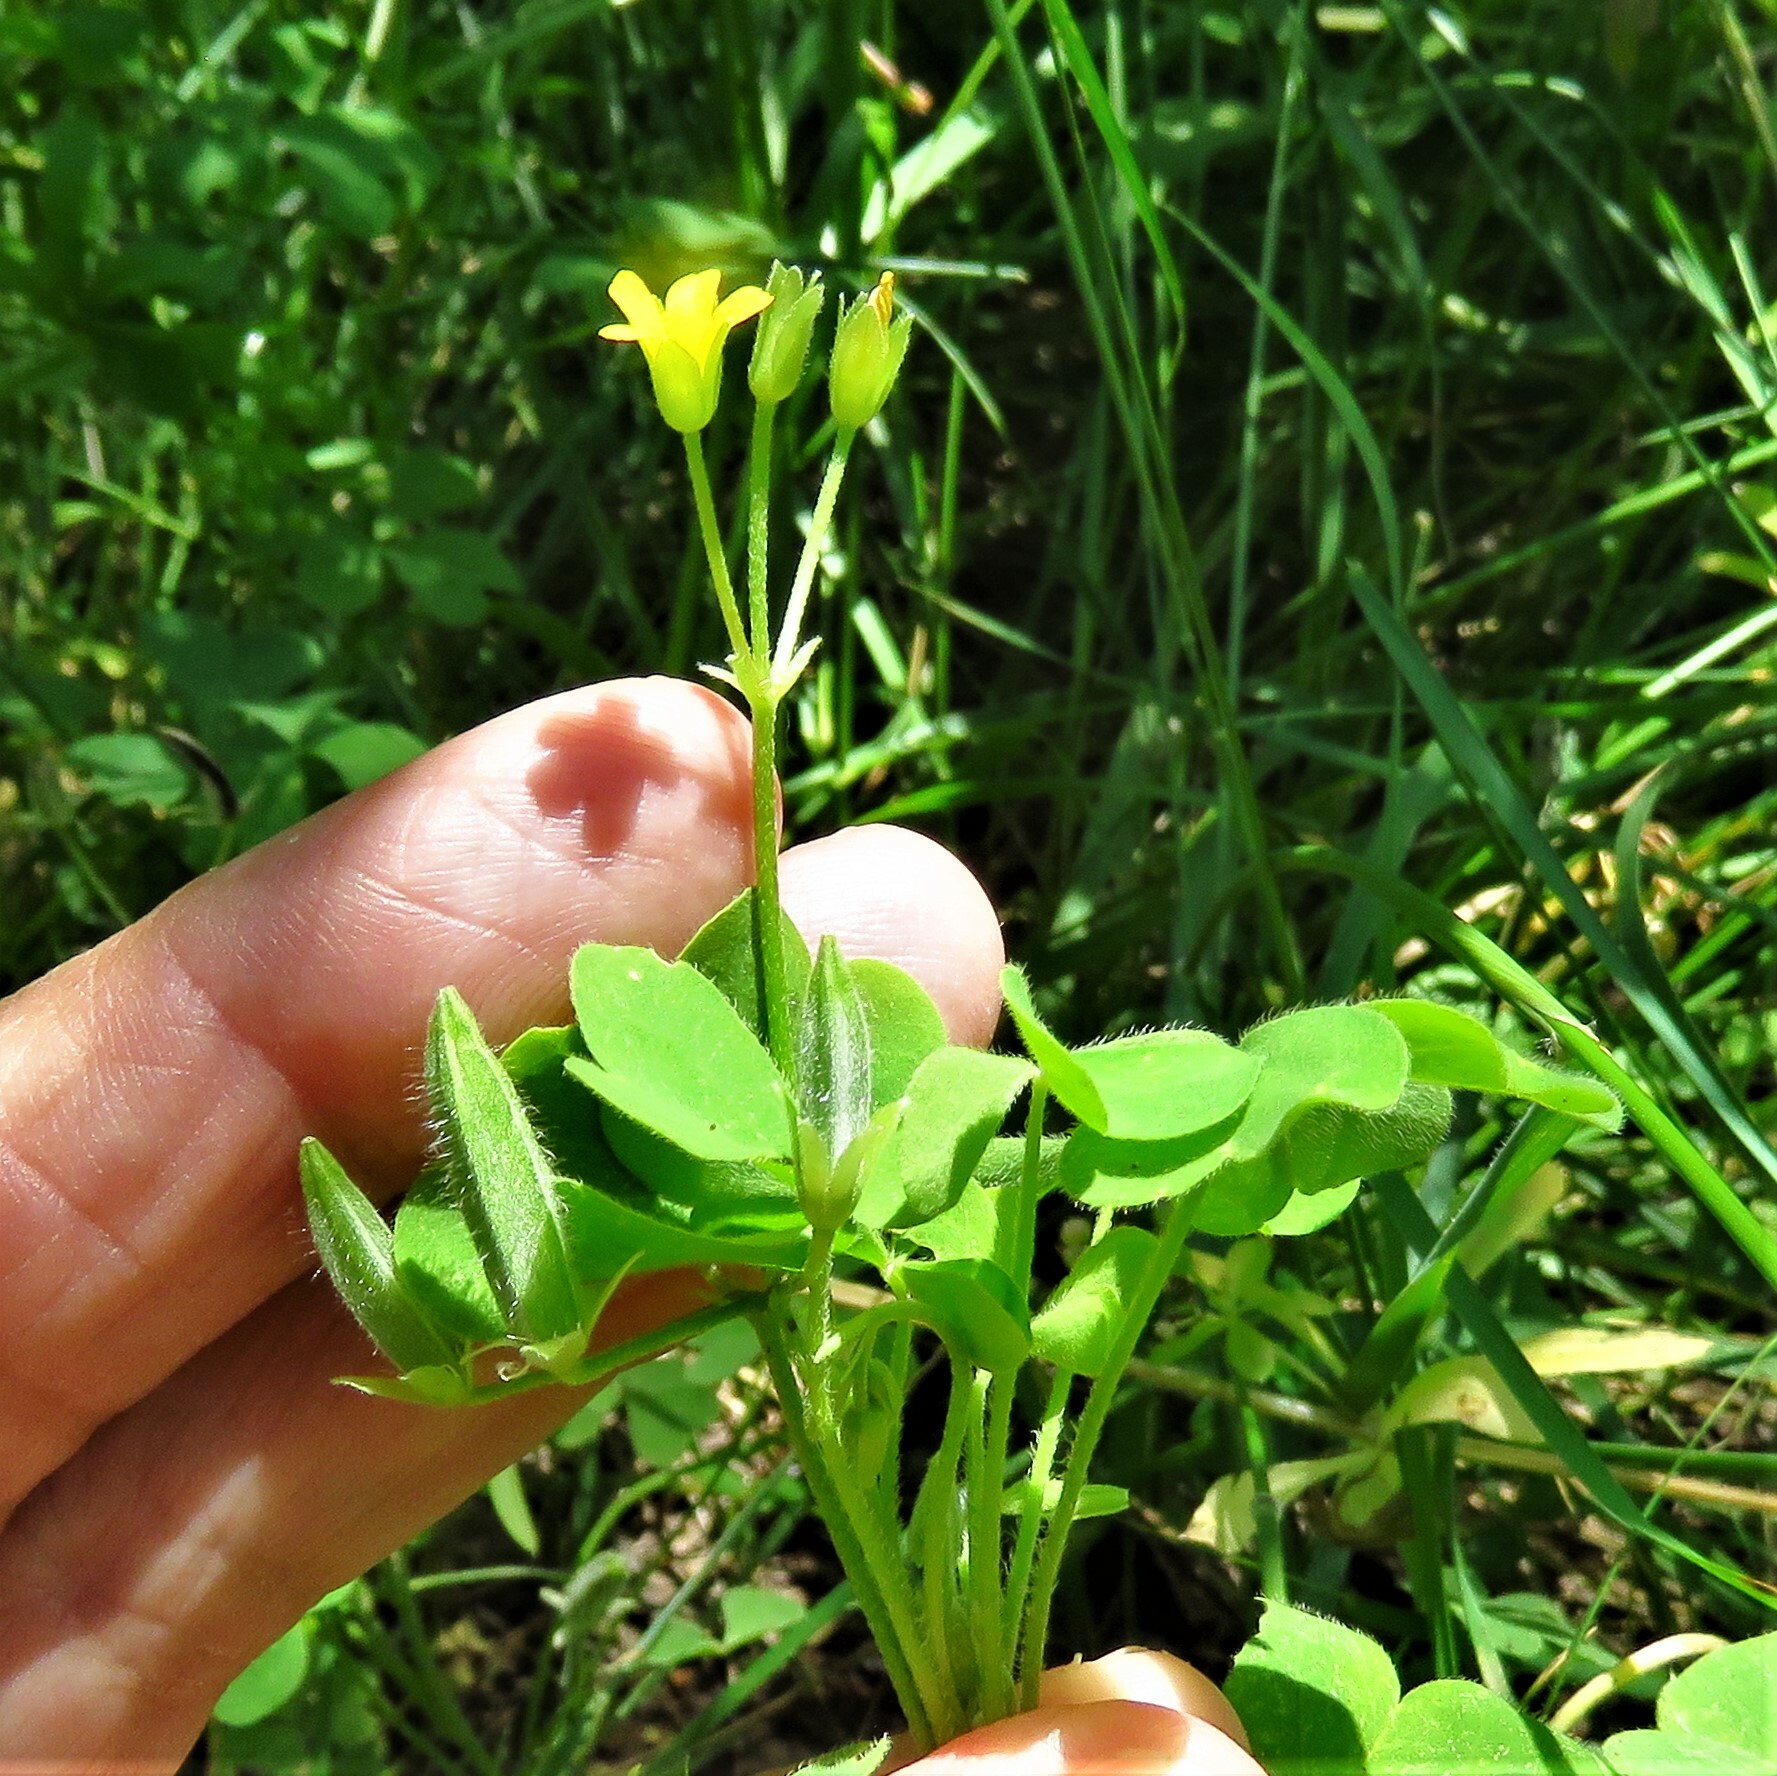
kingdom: Plantae
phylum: Tracheophyta
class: Magnoliopsida
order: Oxalidales
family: Oxalidaceae
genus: Oxalis
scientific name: Oxalis dillenii
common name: Sussex yellow-sorrel
